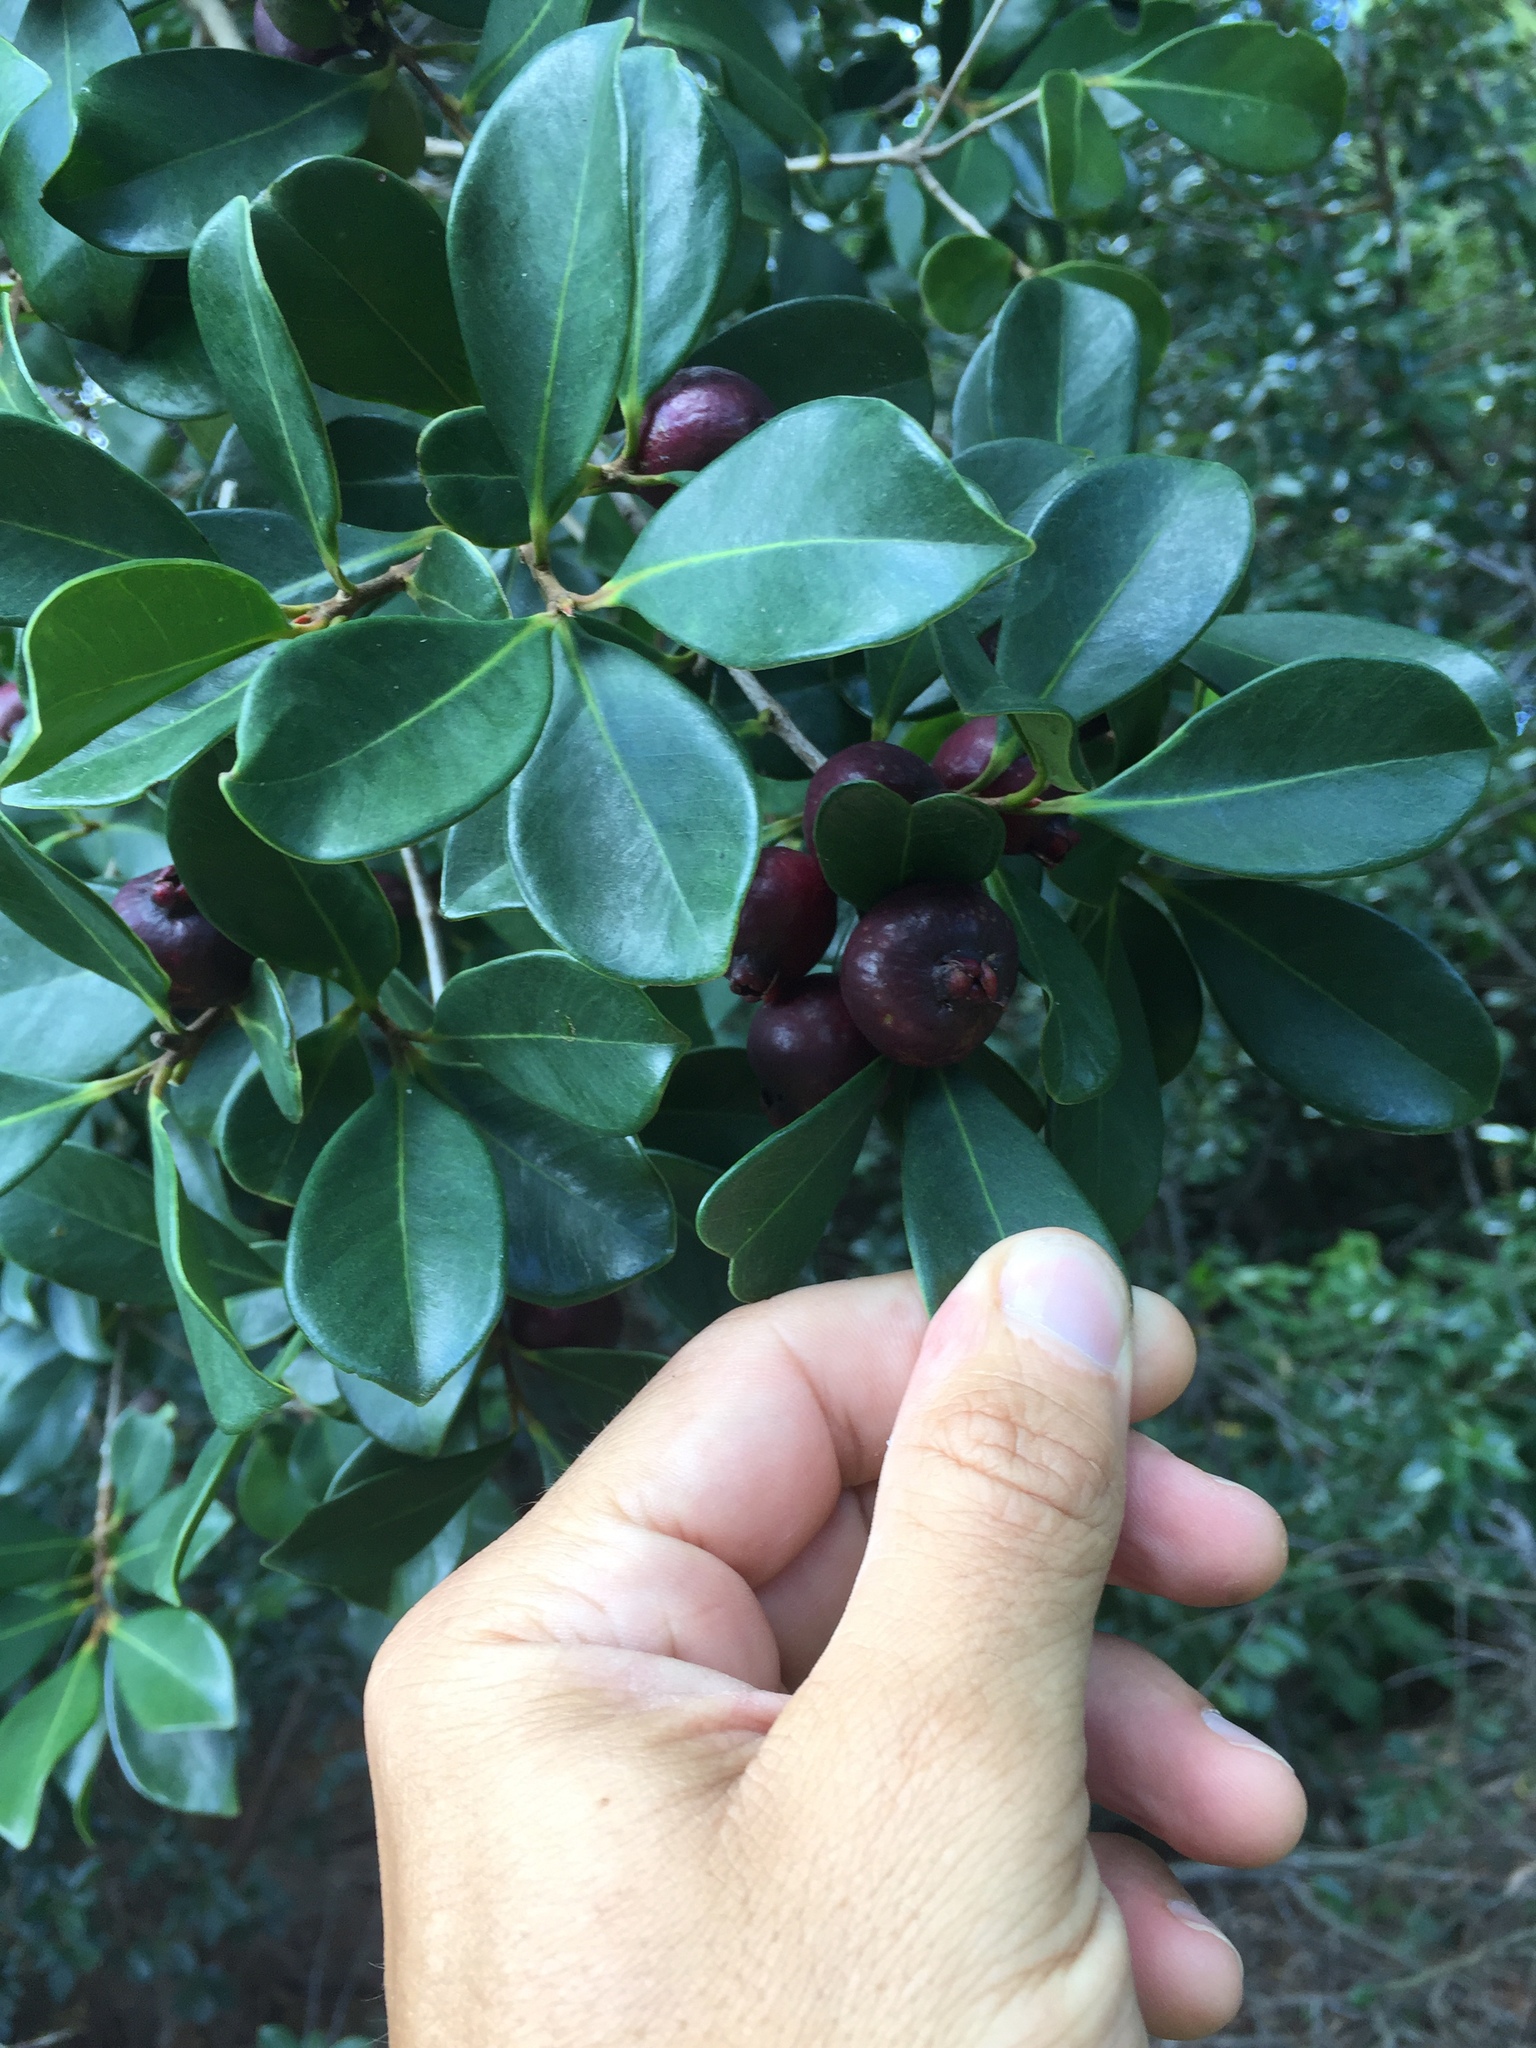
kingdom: Plantae
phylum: Tracheophyta
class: Magnoliopsida
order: Myrtales
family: Myrtaceae
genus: Psidium
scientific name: Psidium cattleianum
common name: Strawberry guava
